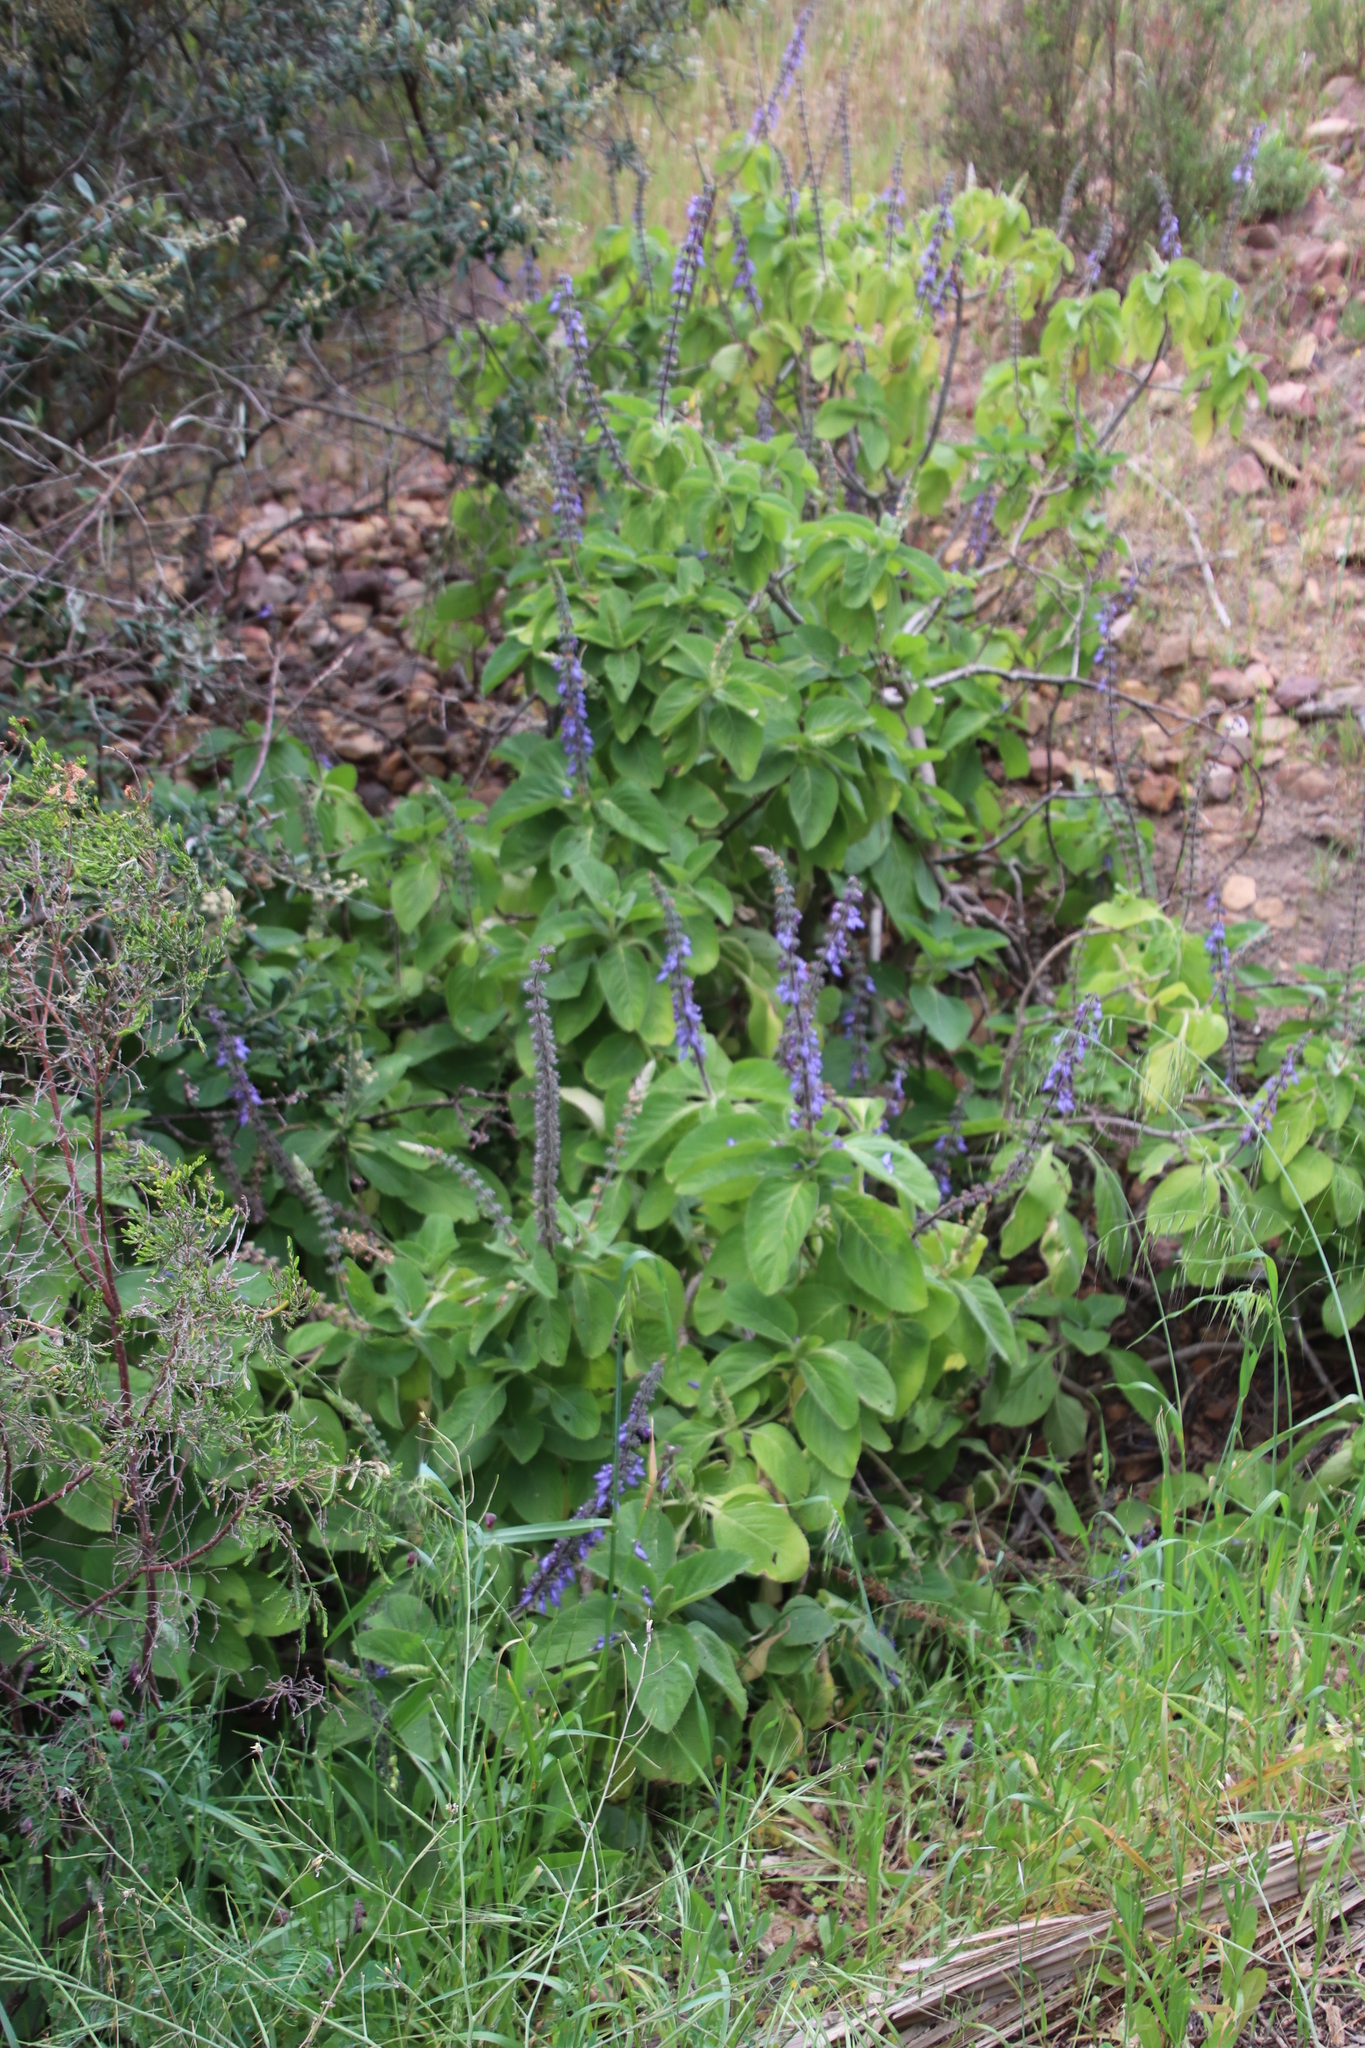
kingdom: Plantae
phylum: Tracheophyta
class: Magnoliopsida
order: Lamiales
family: Lamiaceae
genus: Coleus
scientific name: Coleus barbatus
